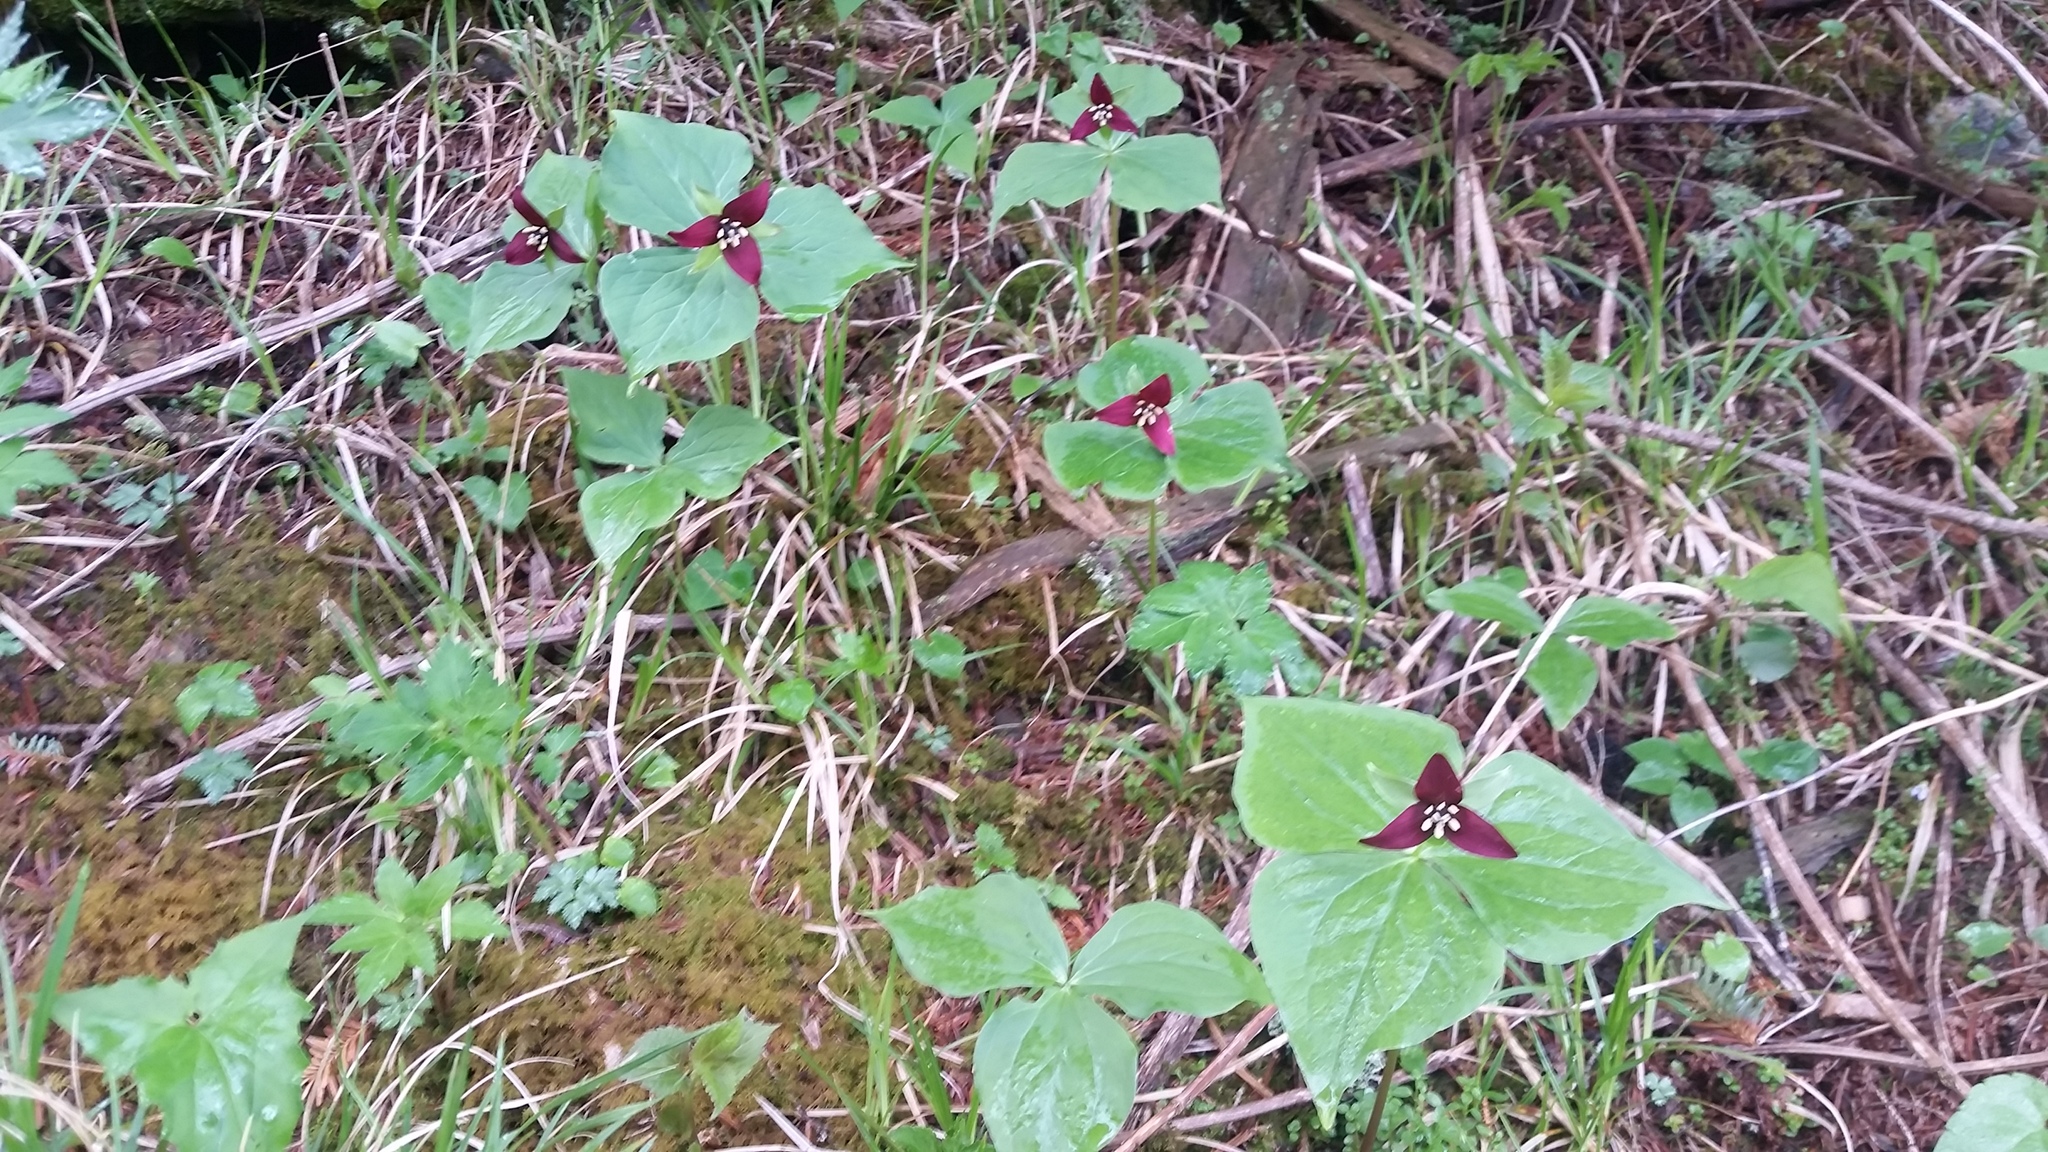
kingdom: Plantae
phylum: Tracheophyta
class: Liliopsida
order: Liliales
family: Melanthiaceae
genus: Trillium
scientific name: Trillium erectum
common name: Purple trillium
